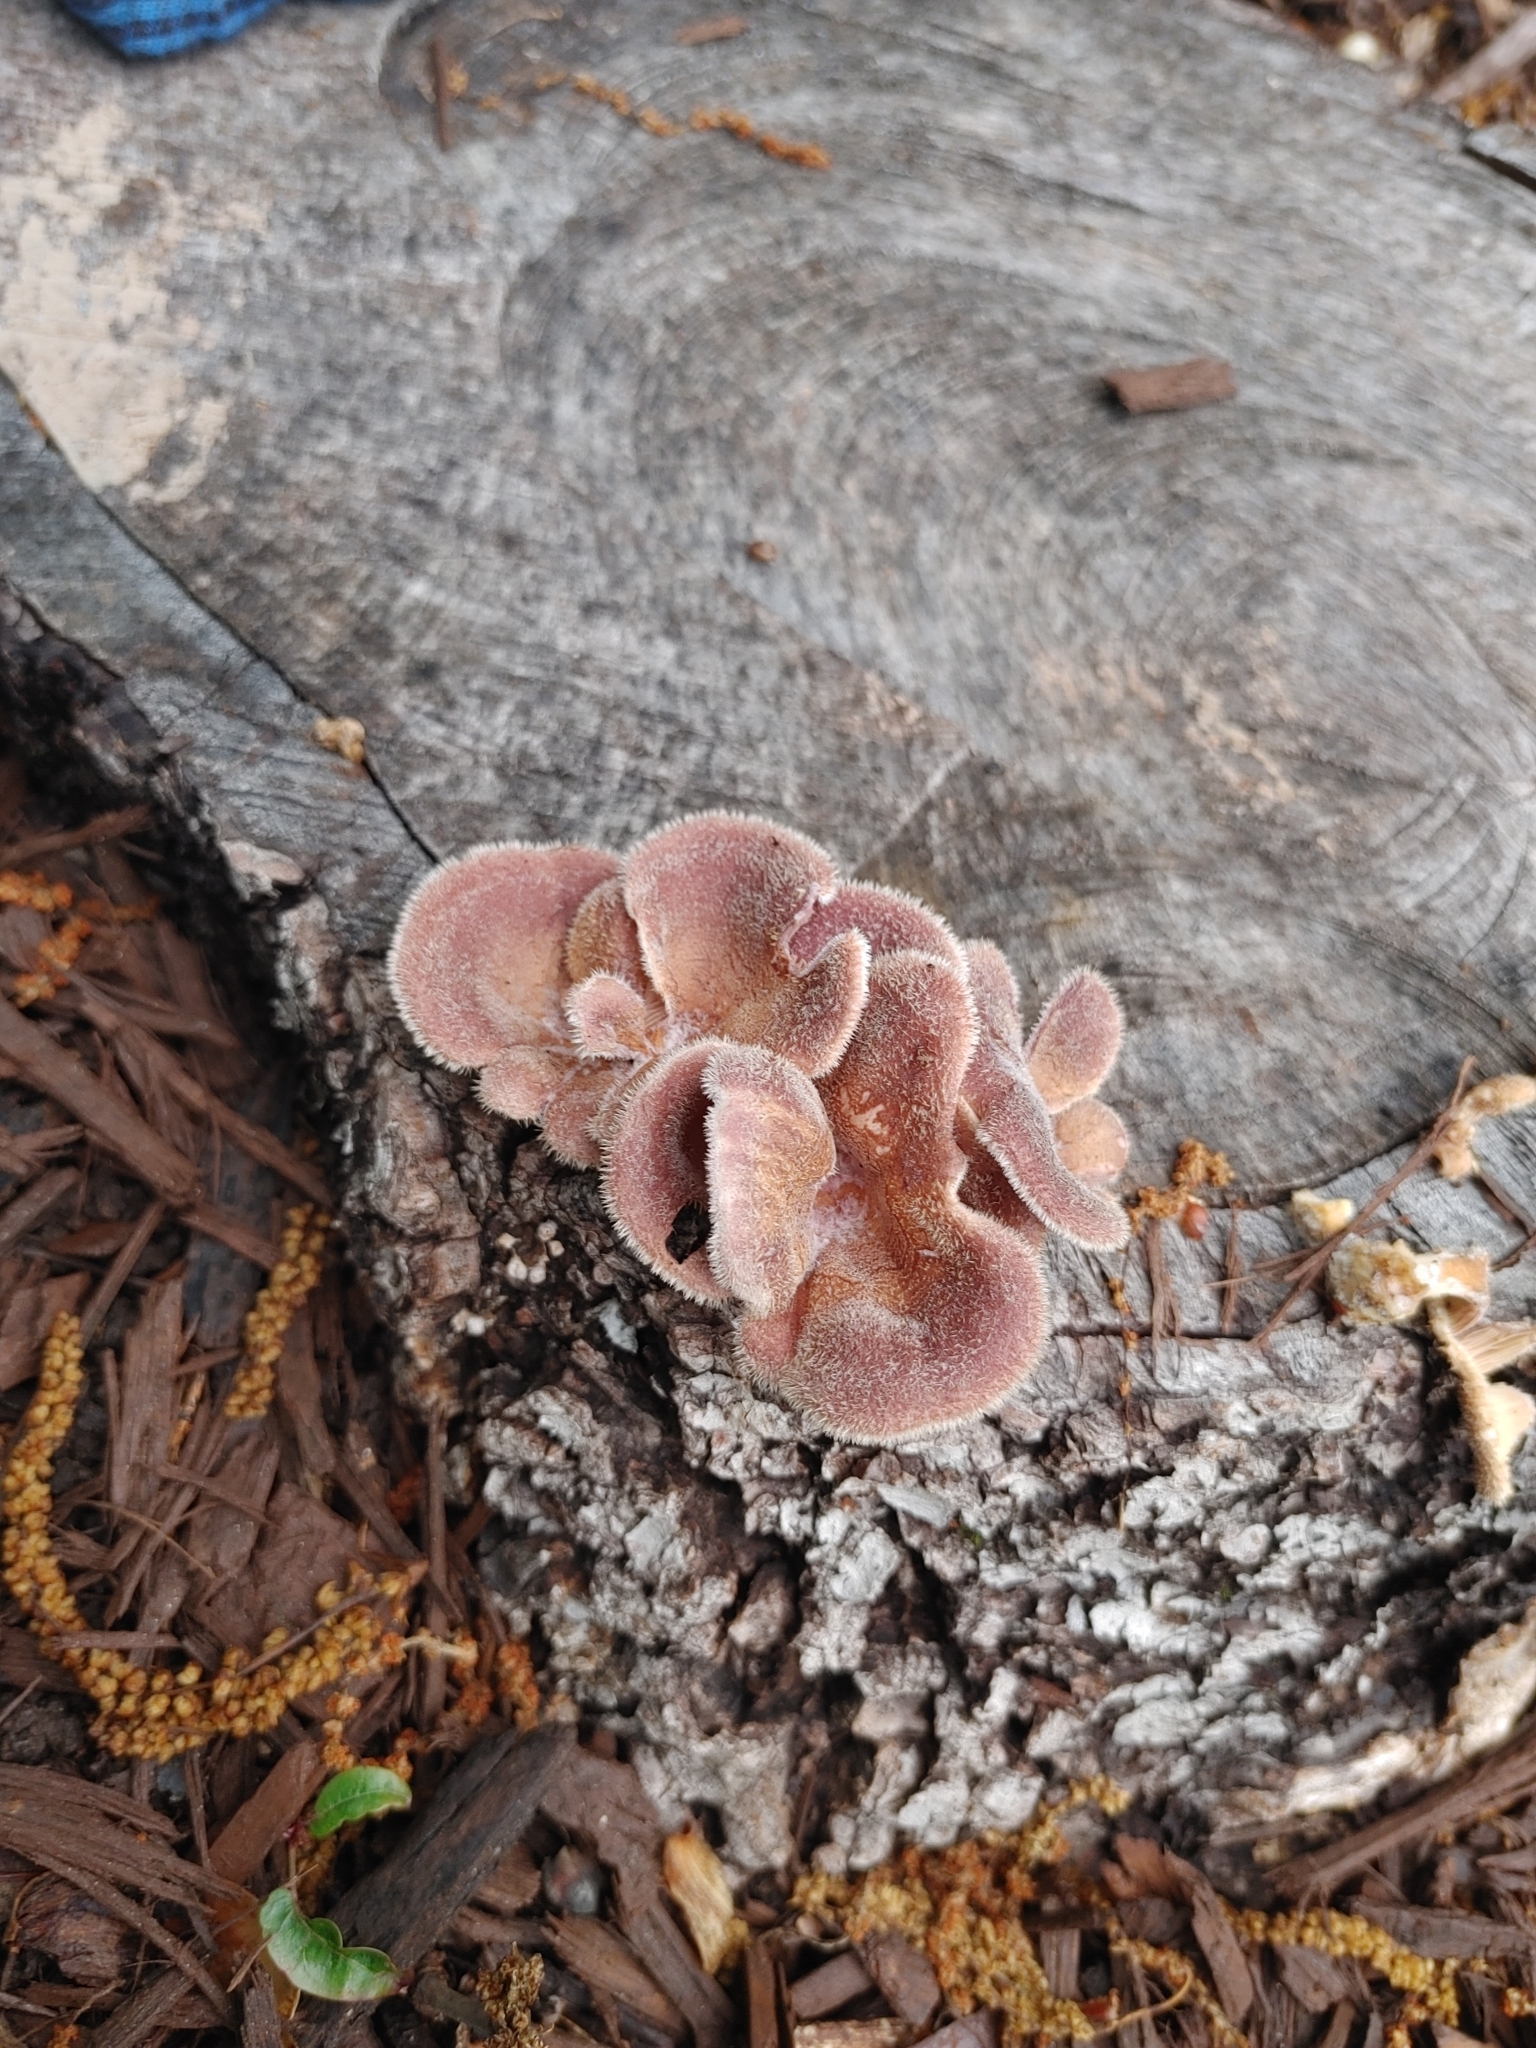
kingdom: Fungi
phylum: Basidiomycota
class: Agaricomycetes
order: Polyporales
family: Panaceae
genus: Panus
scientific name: Panus neostrigosus
